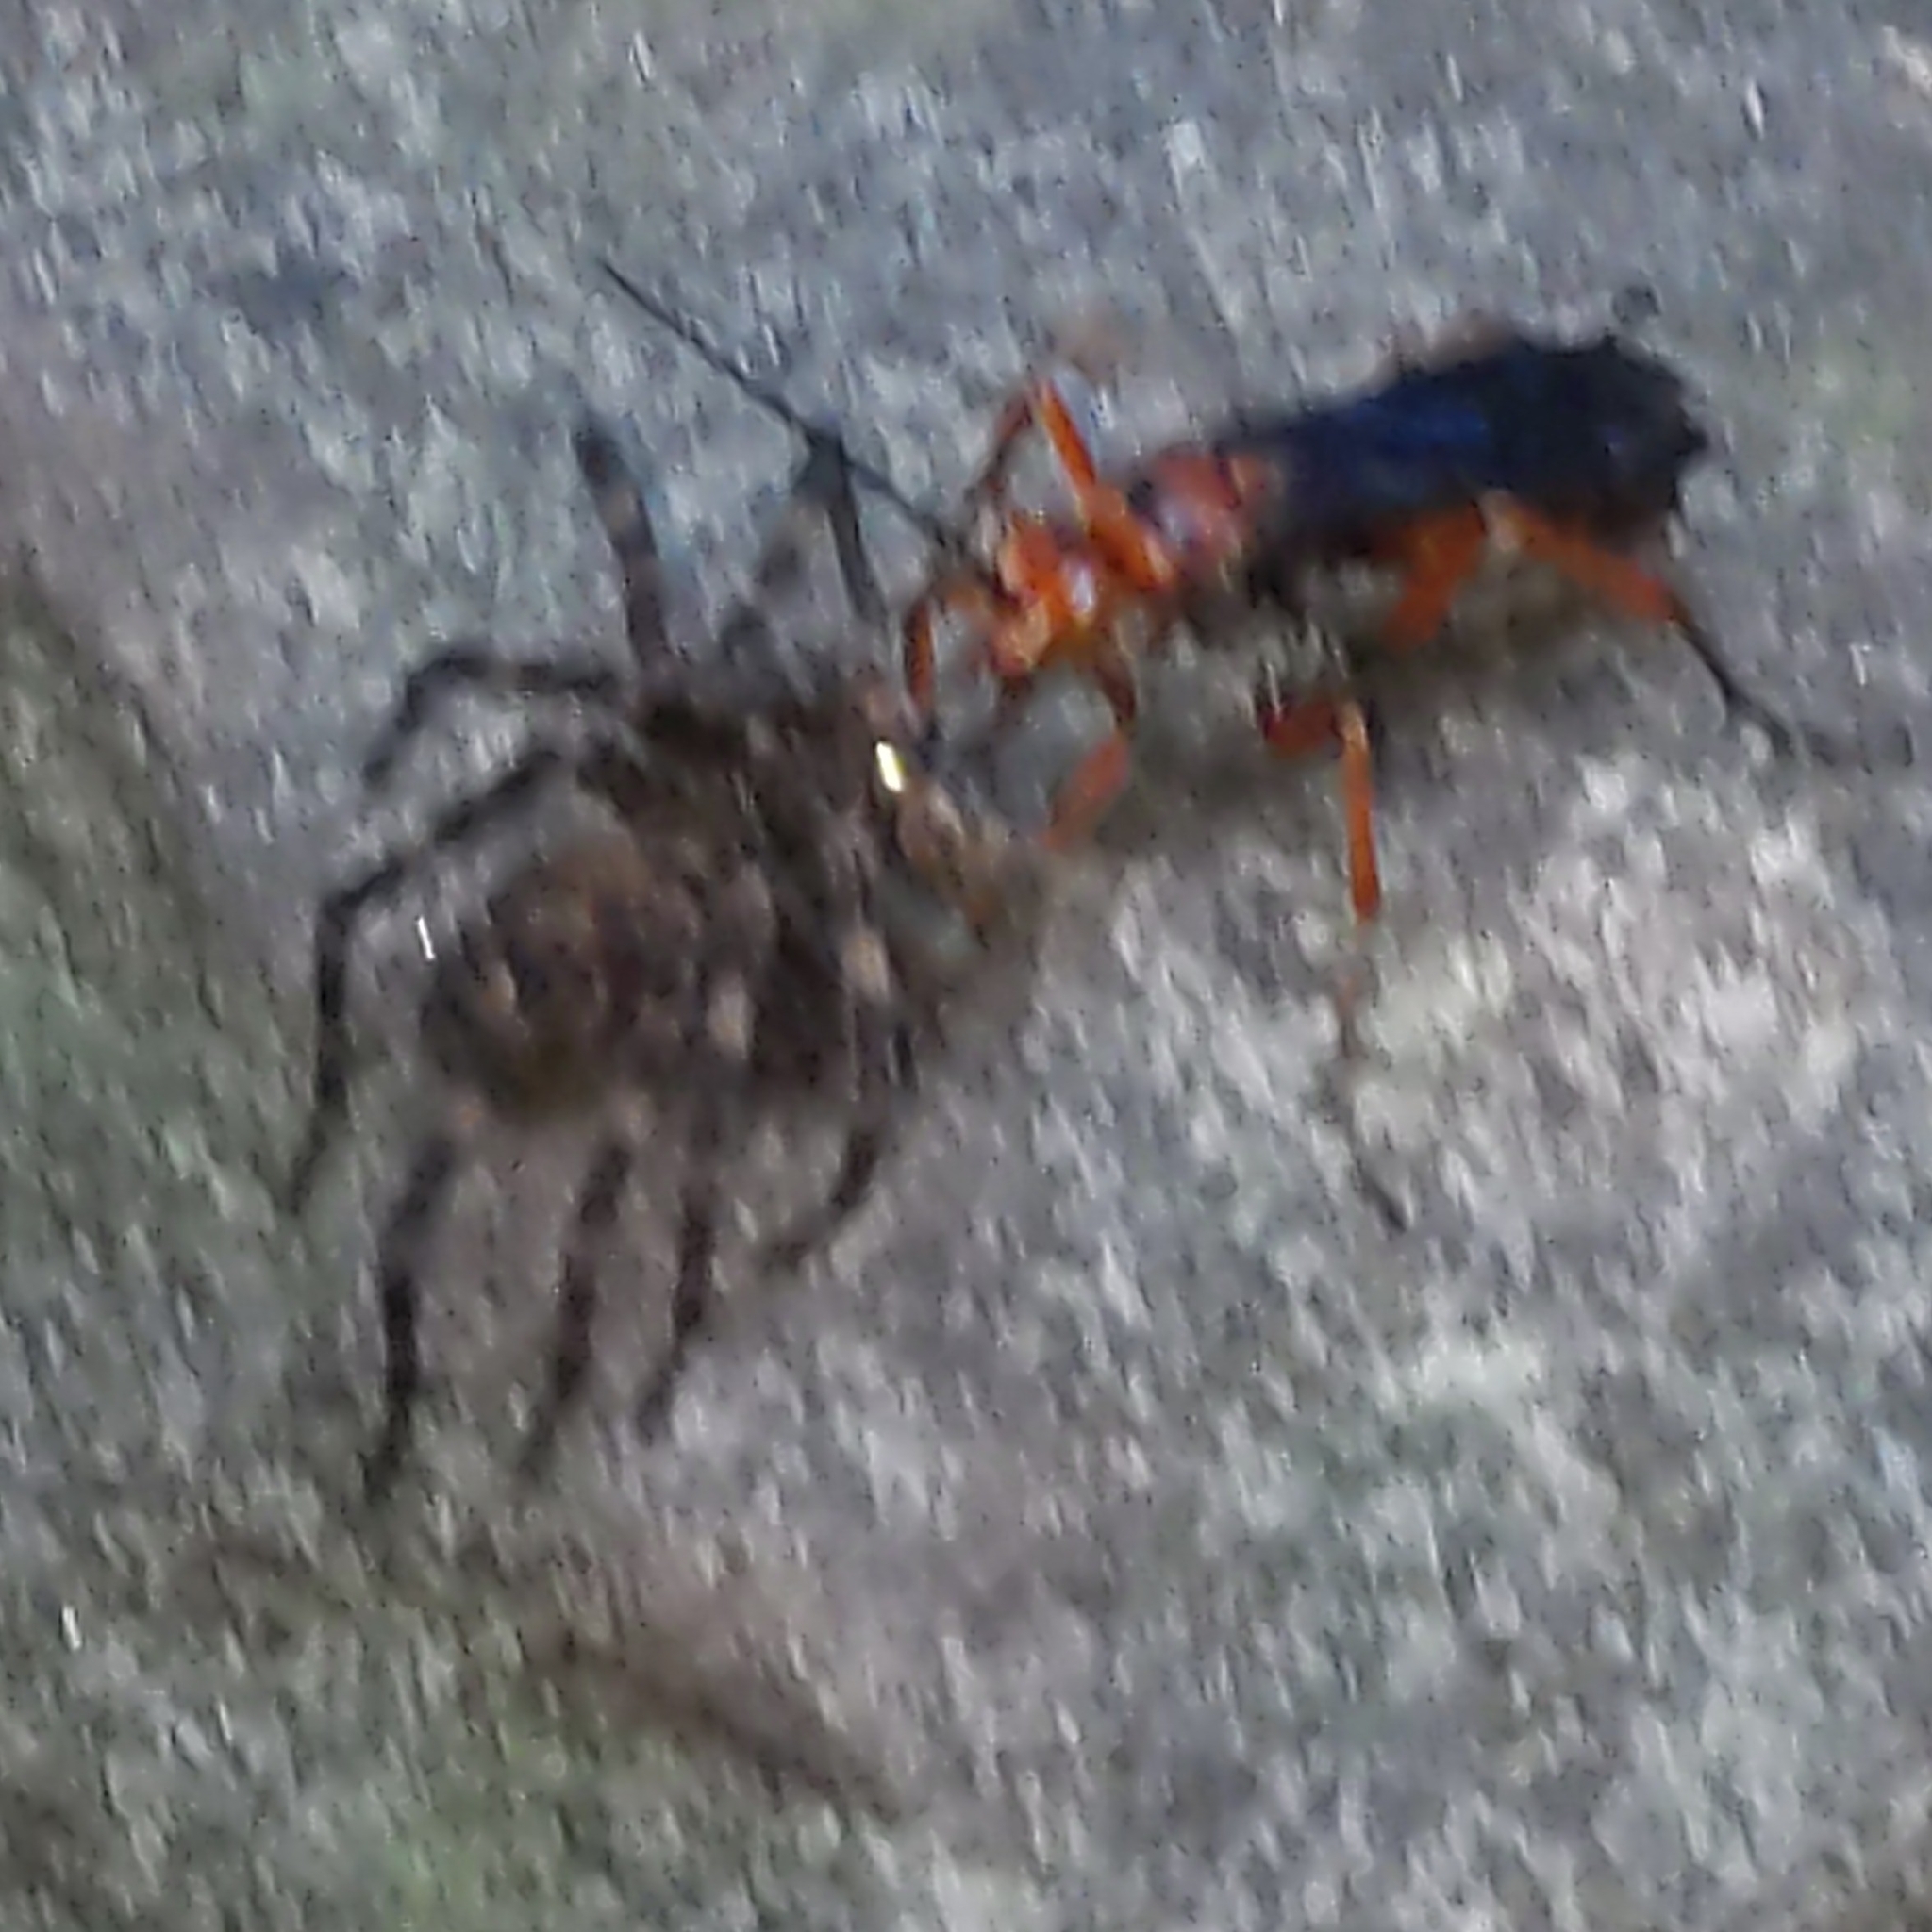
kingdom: Animalia
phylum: Arthropoda
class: Insecta
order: Hymenoptera
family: Pompilidae
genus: Tachypompilus
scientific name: Tachypompilus ferrugineus
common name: Rusty spider wasp
